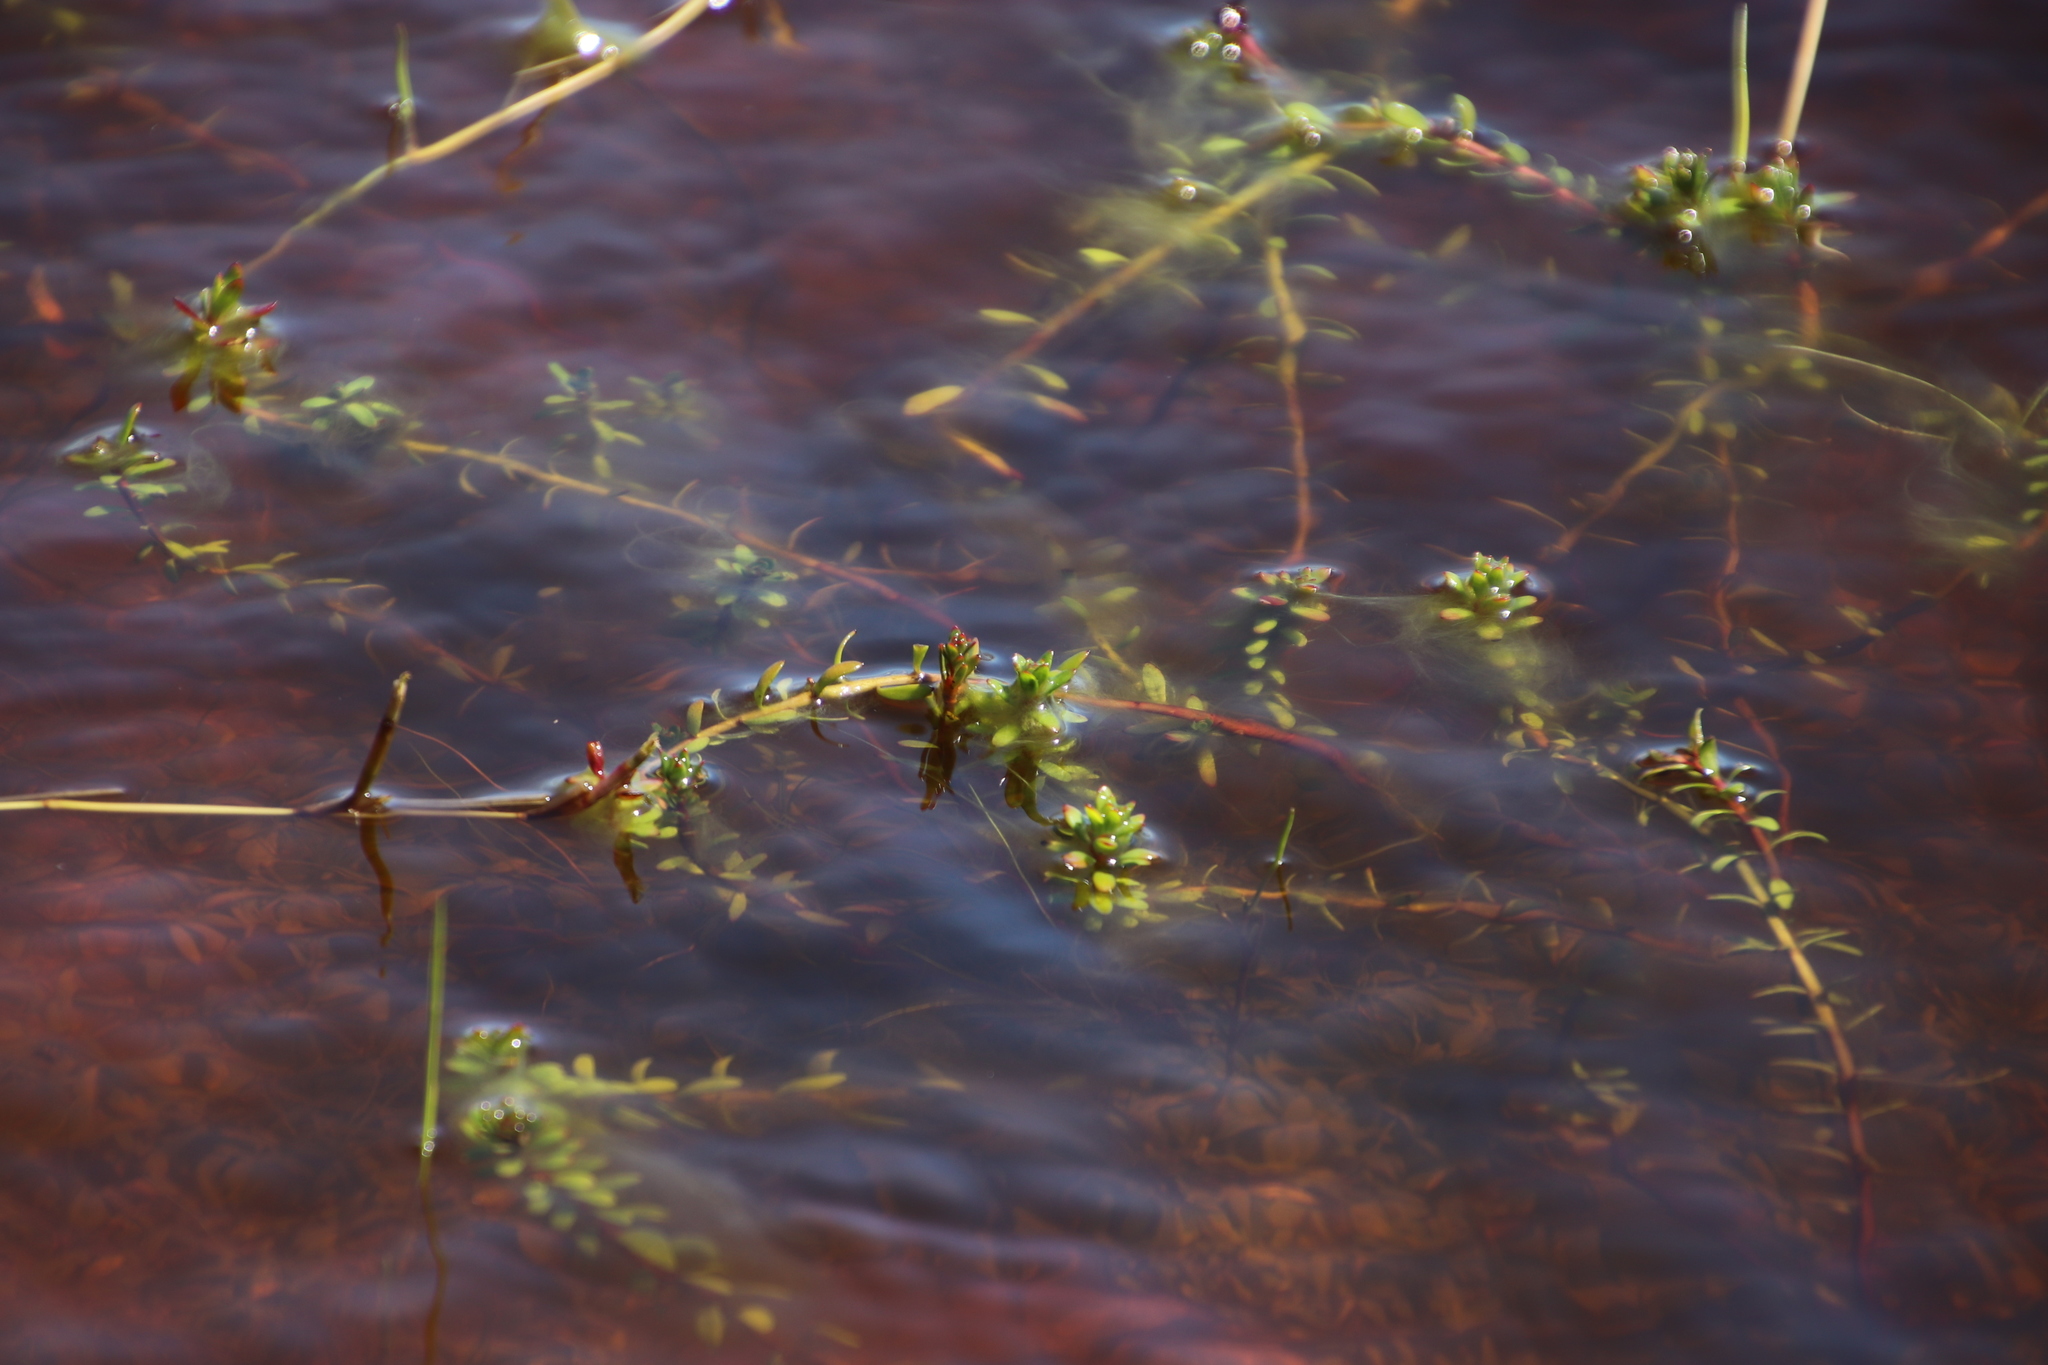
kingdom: Plantae
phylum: Tracheophyta
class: Magnoliopsida
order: Saxifragales
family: Haloragaceae
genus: Laurembergia
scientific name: Laurembergia repens
